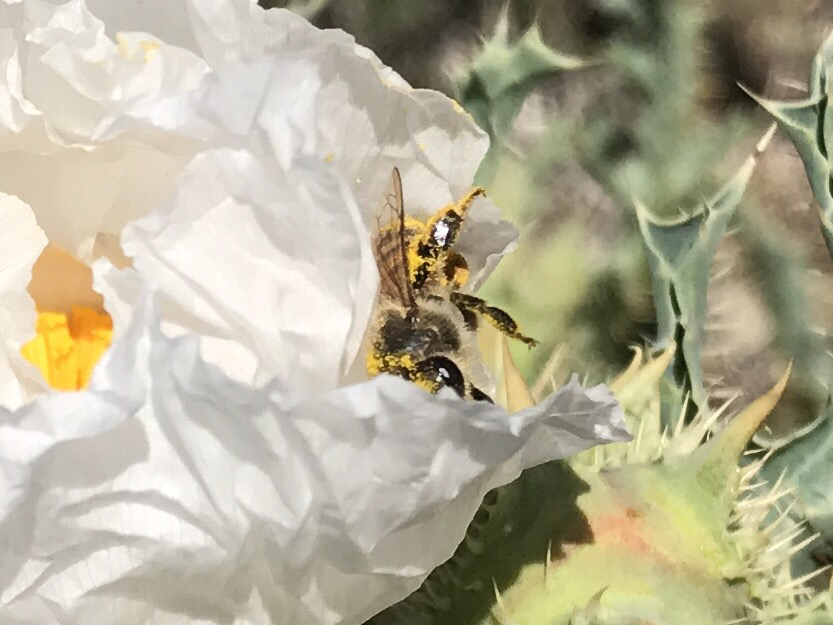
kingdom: Animalia
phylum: Arthropoda
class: Insecta
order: Hymenoptera
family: Apidae
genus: Apis
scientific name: Apis mellifera
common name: Honey bee
